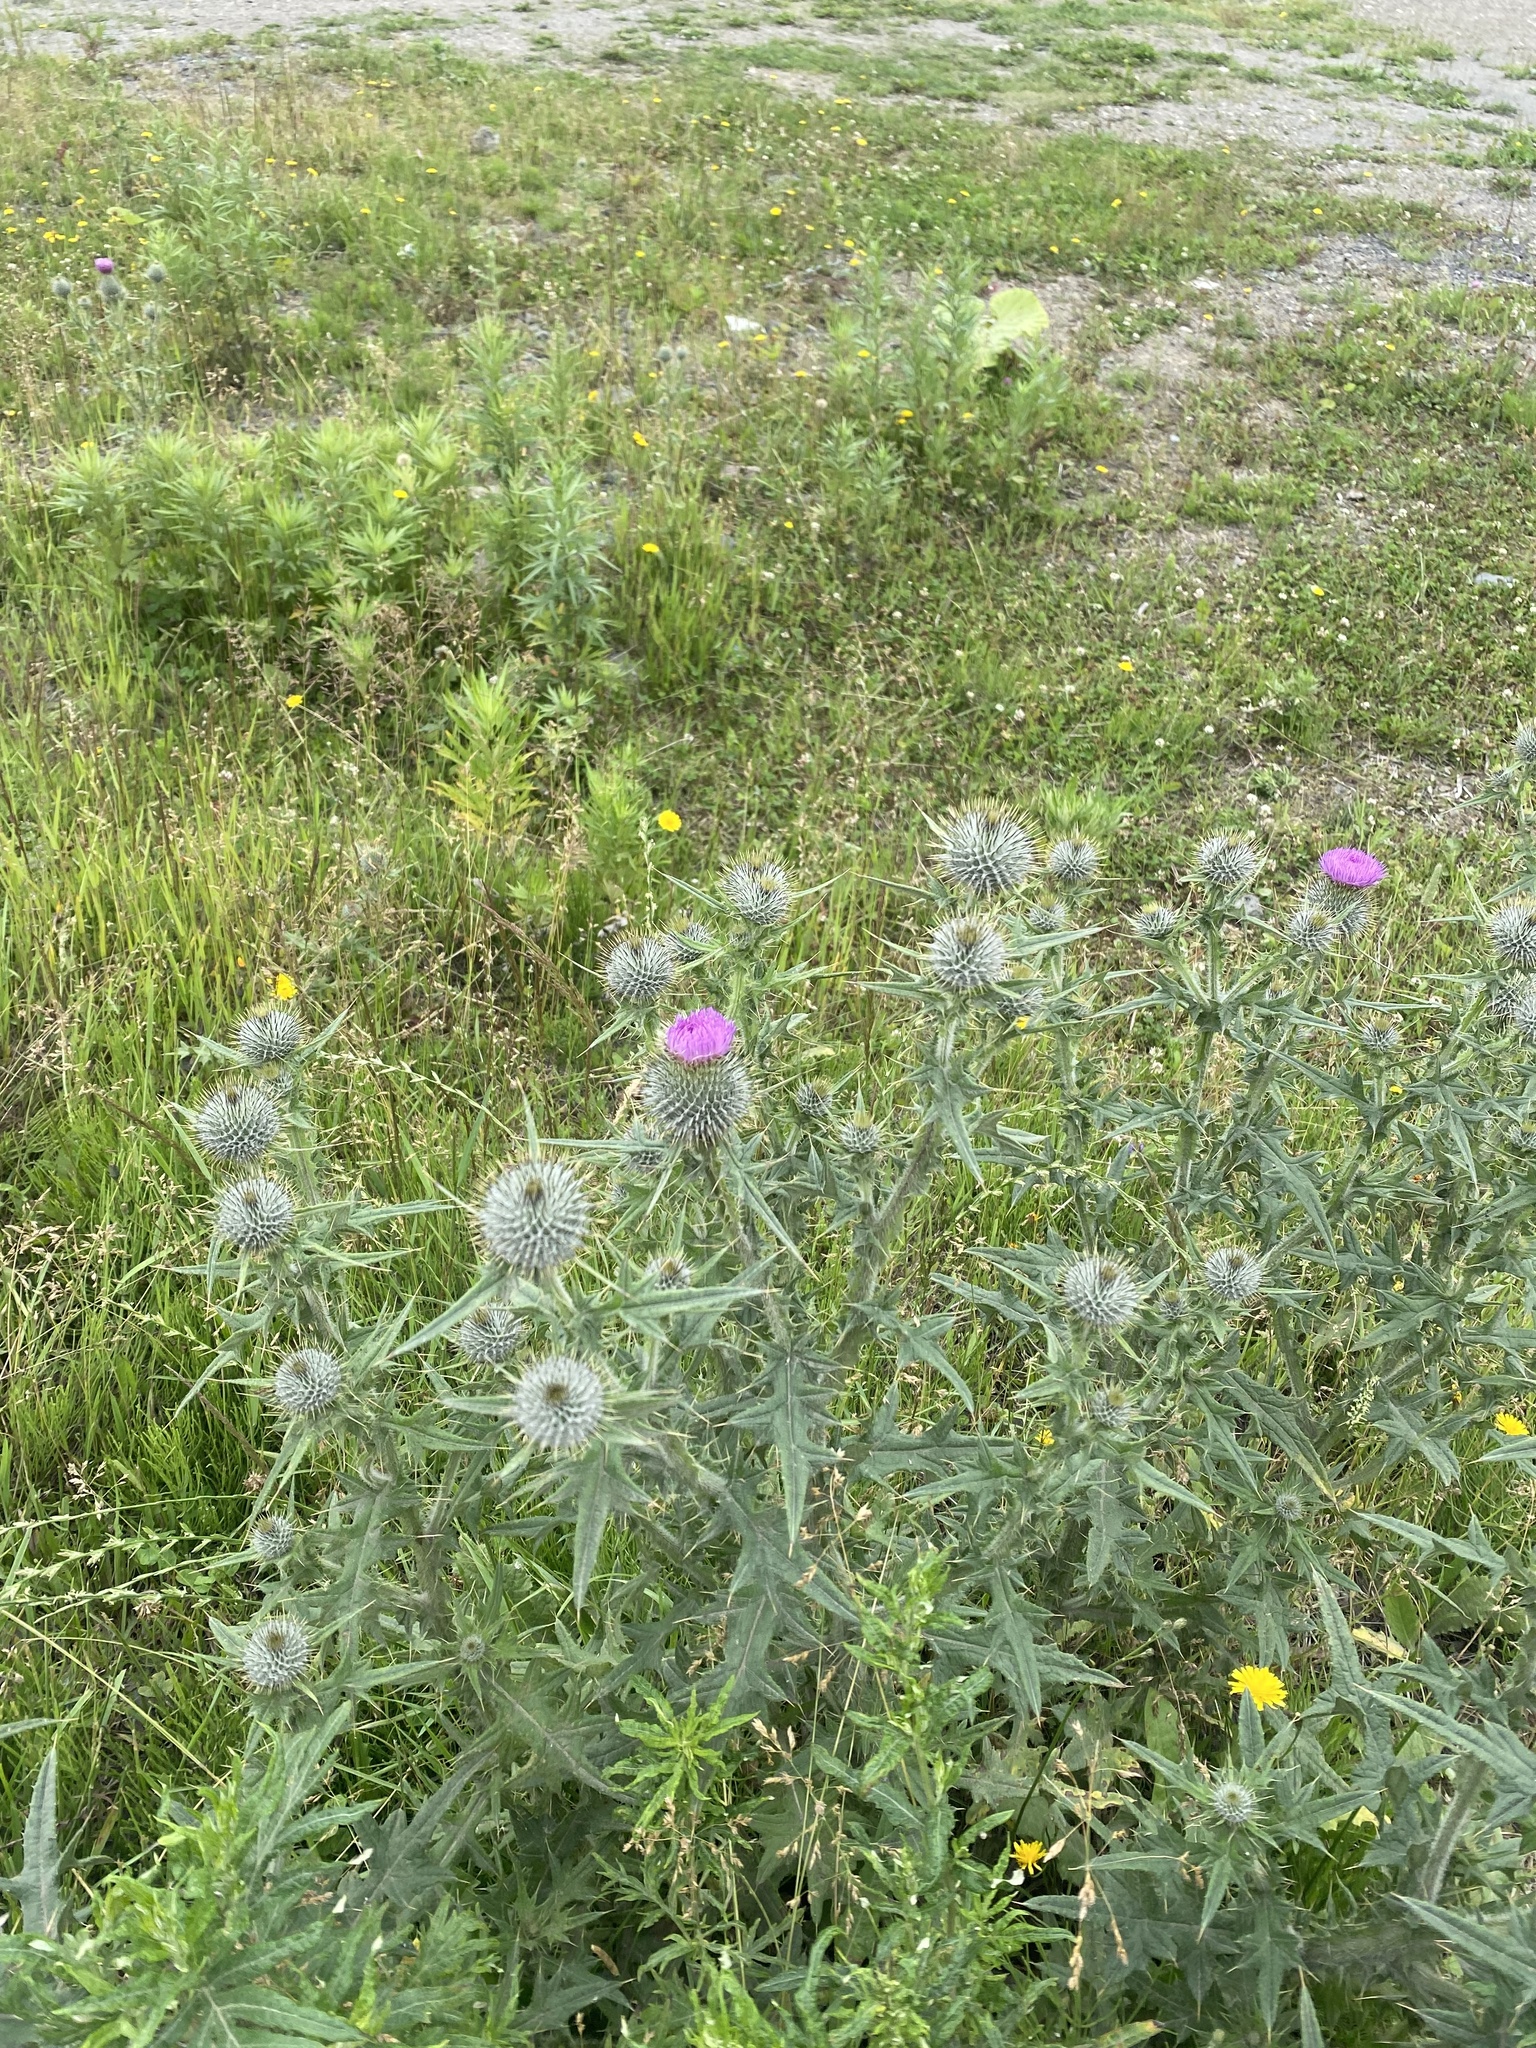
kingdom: Plantae
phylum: Tracheophyta
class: Magnoliopsida
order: Asterales
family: Asteraceae
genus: Cirsium
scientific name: Cirsium vulgare
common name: Bull thistle
